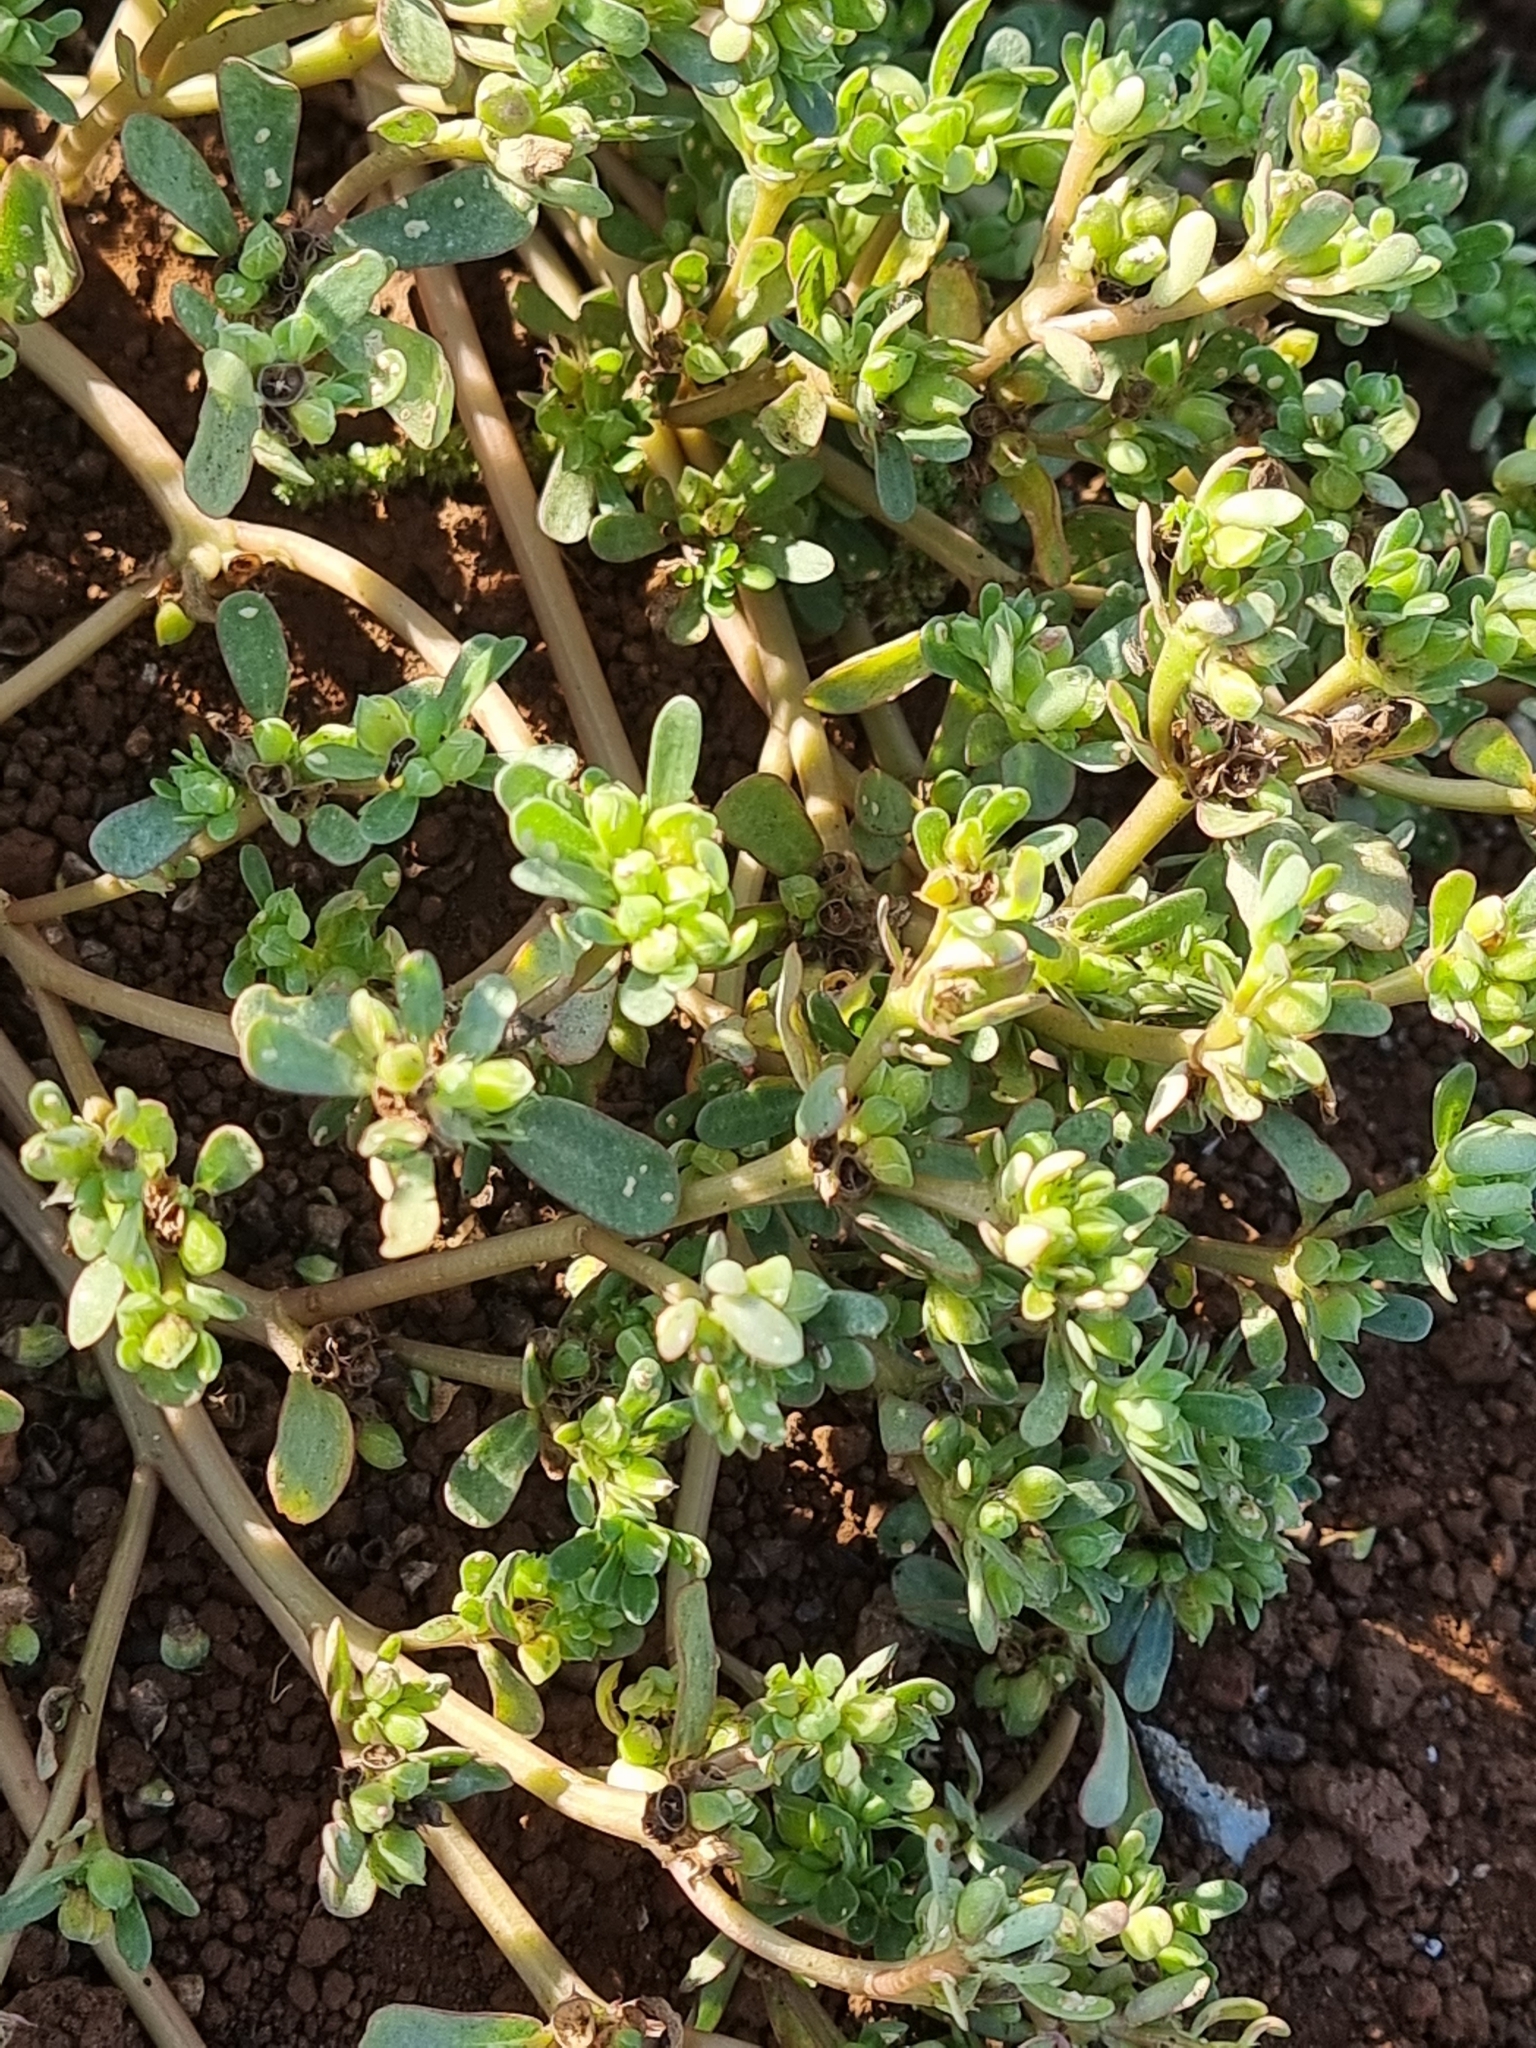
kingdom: Plantae
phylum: Tracheophyta
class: Magnoliopsida
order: Caryophyllales
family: Portulacaceae
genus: Portulaca
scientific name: Portulaca oleracea
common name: Common purslane
